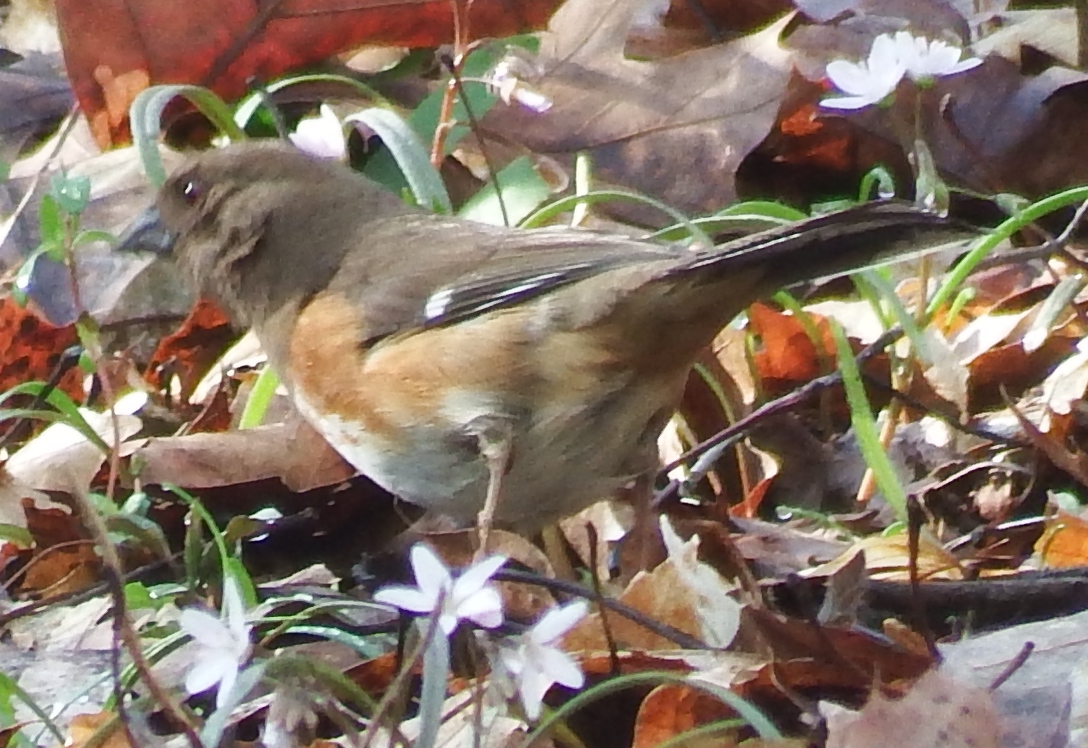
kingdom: Animalia
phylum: Chordata
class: Aves
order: Passeriformes
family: Passerellidae
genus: Pipilo
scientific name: Pipilo erythrophthalmus
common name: Eastern towhee
